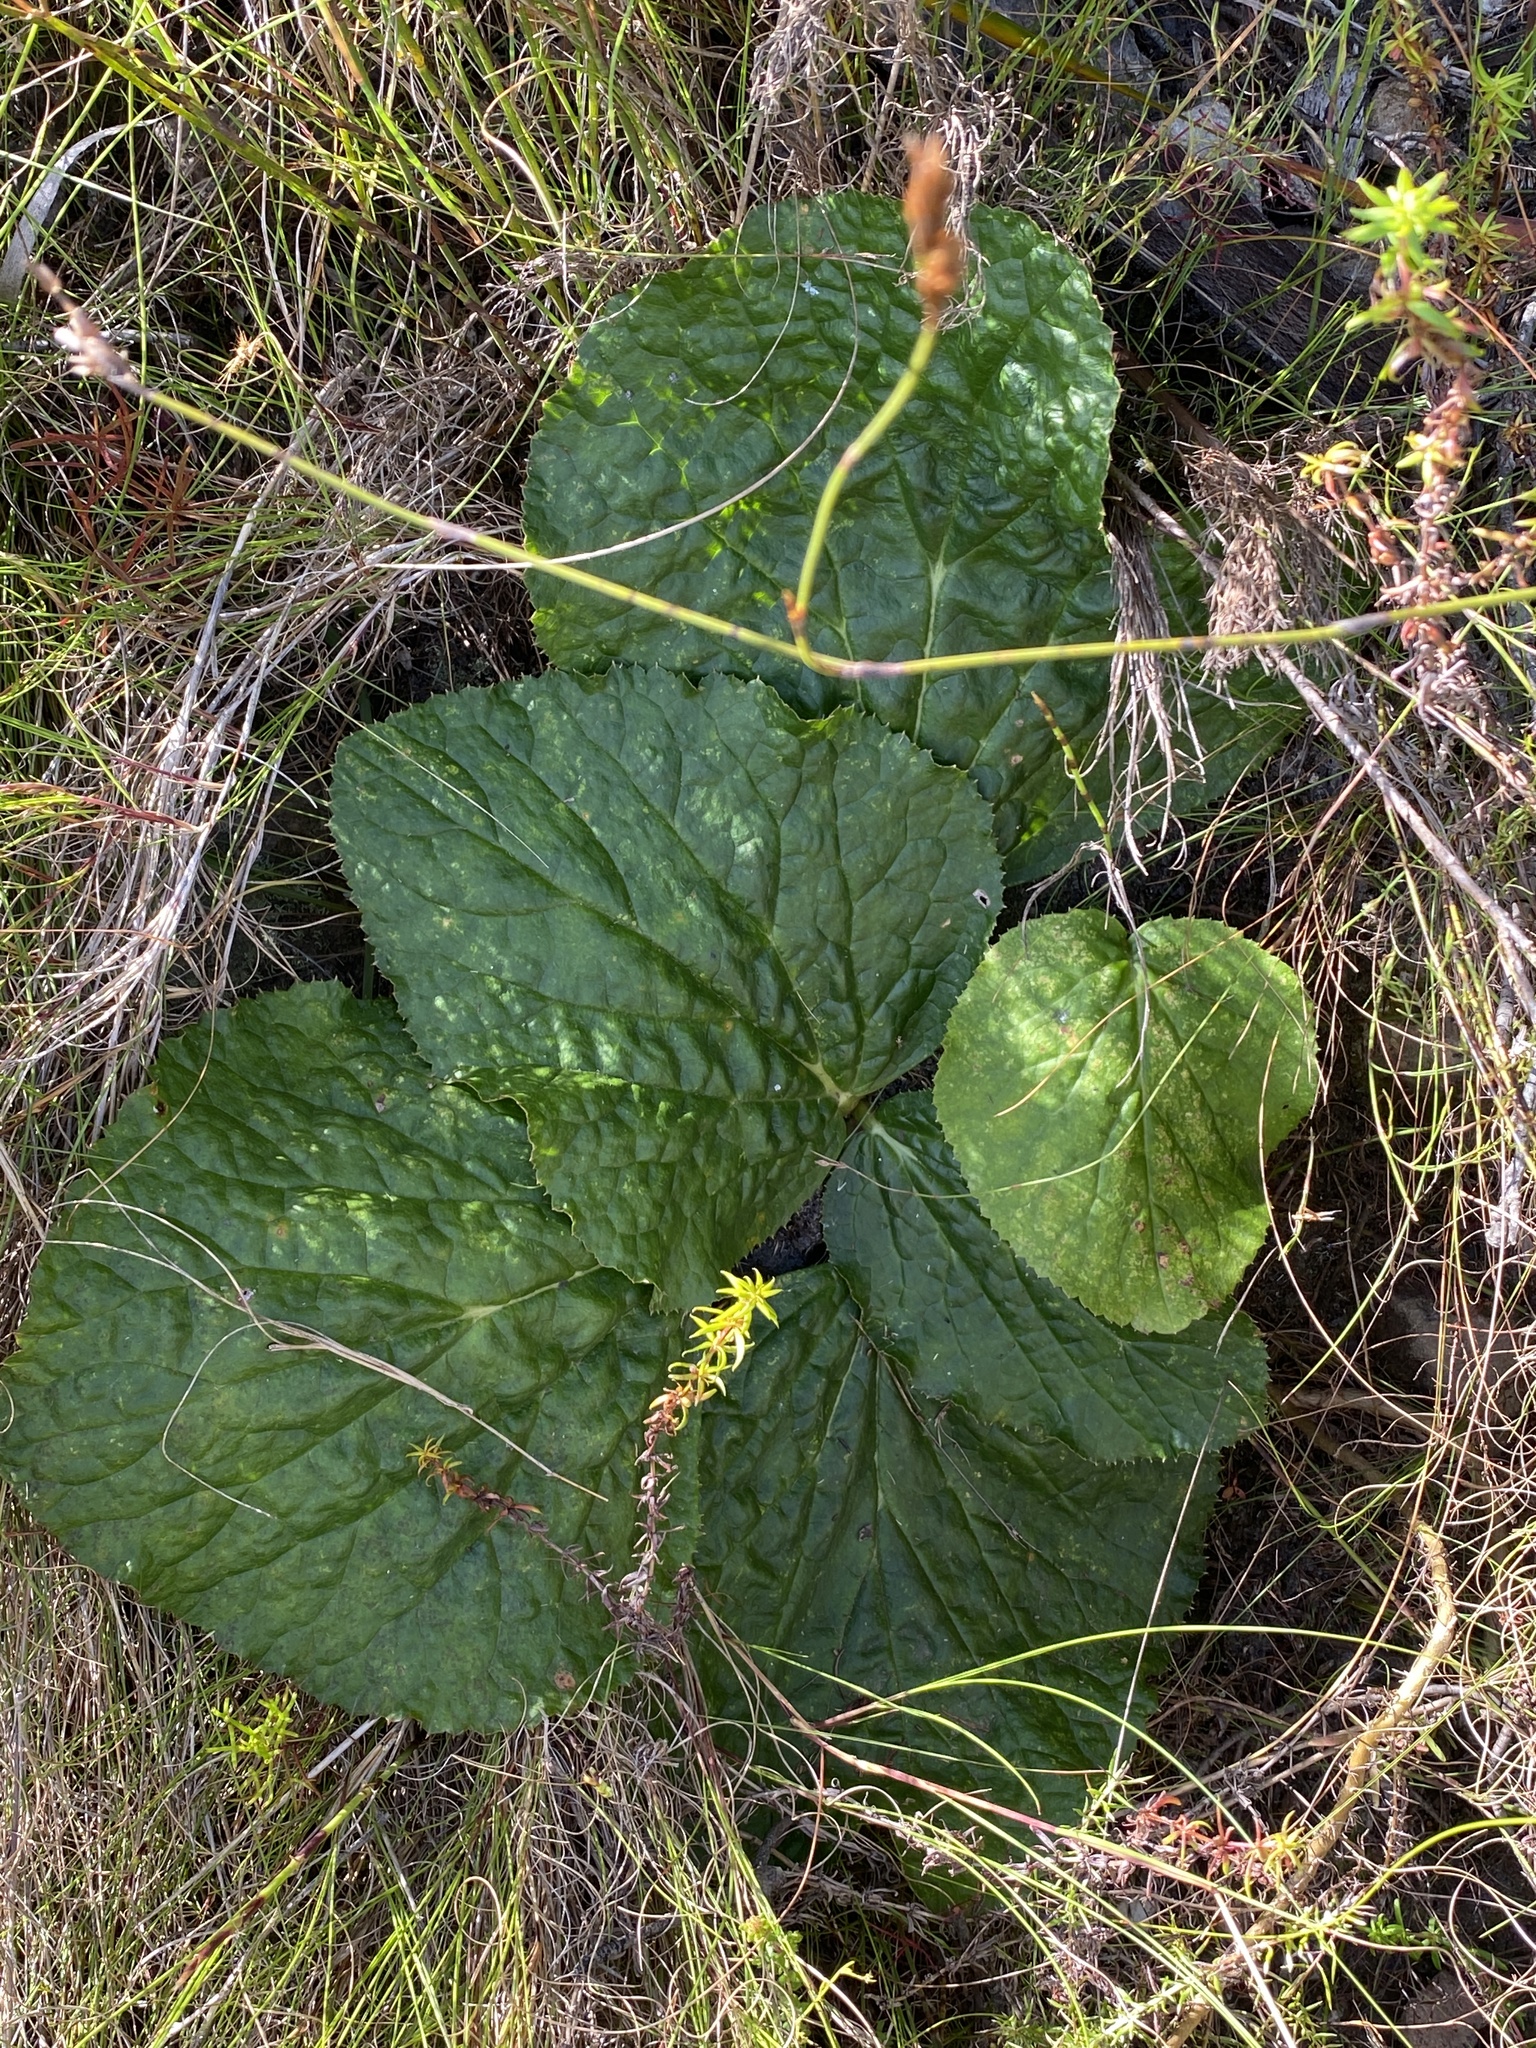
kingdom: Plantae
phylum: Tracheophyta
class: Magnoliopsida
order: Apiales
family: Apiaceae
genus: Lichtensteinia
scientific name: Lichtensteinia latifolia
